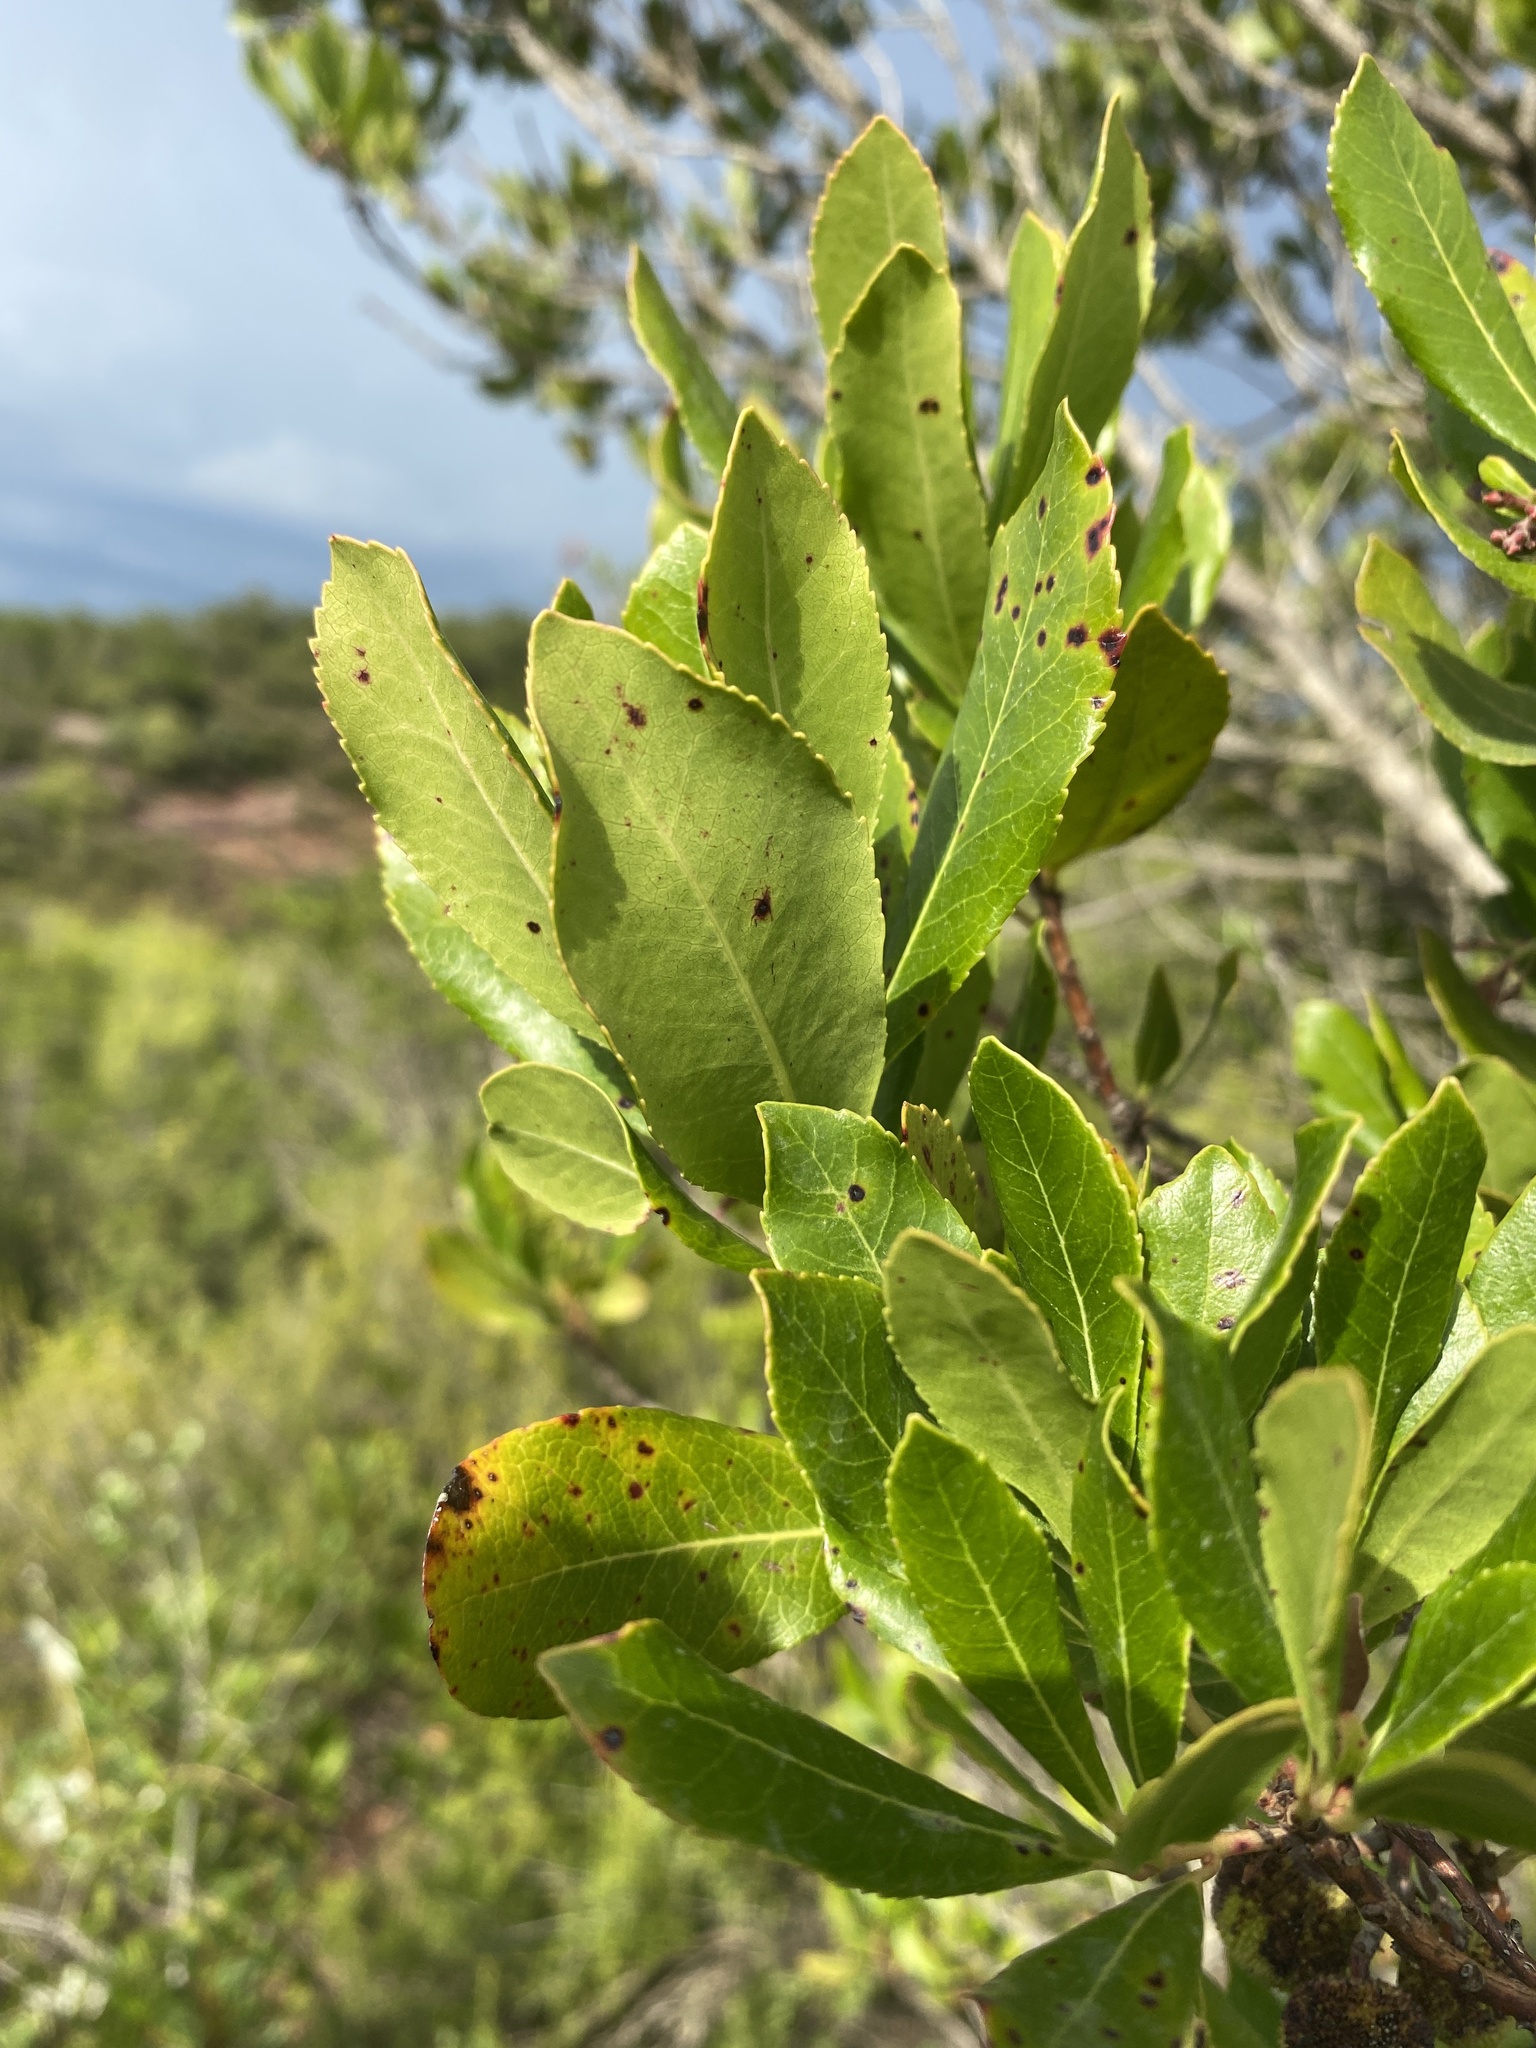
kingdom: Plantae
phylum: Tracheophyta
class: Magnoliopsida
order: Ericales
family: Ericaceae
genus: Arbutus
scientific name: Arbutus unedo
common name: Strawberry-tree
